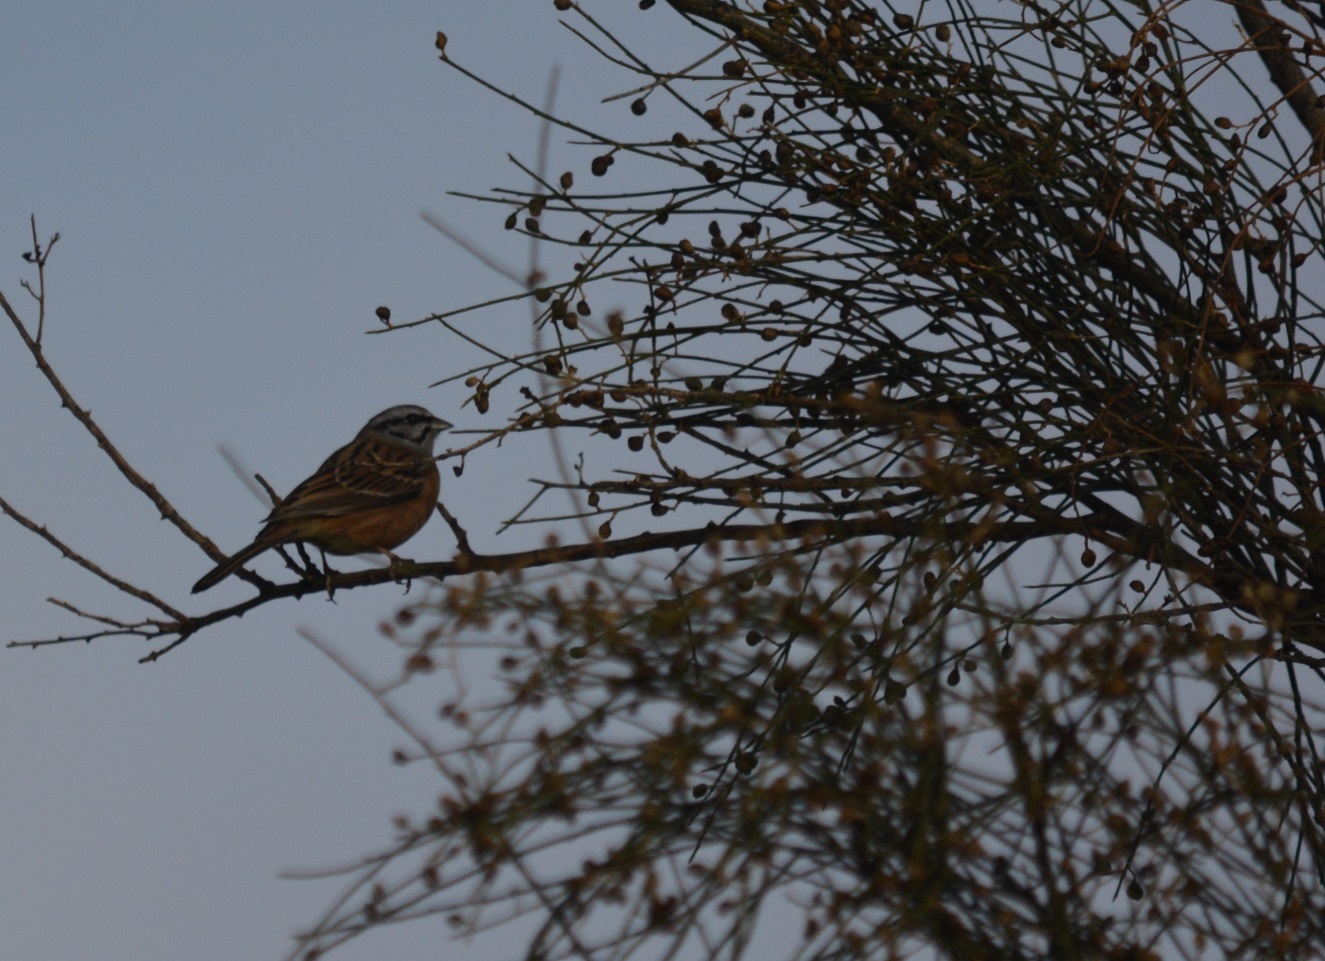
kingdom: Animalia
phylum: Chordata
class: Aves
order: Passeriformes
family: Emberizidae
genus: Emberiza
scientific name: Emberiza cia
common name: Rock bunting
